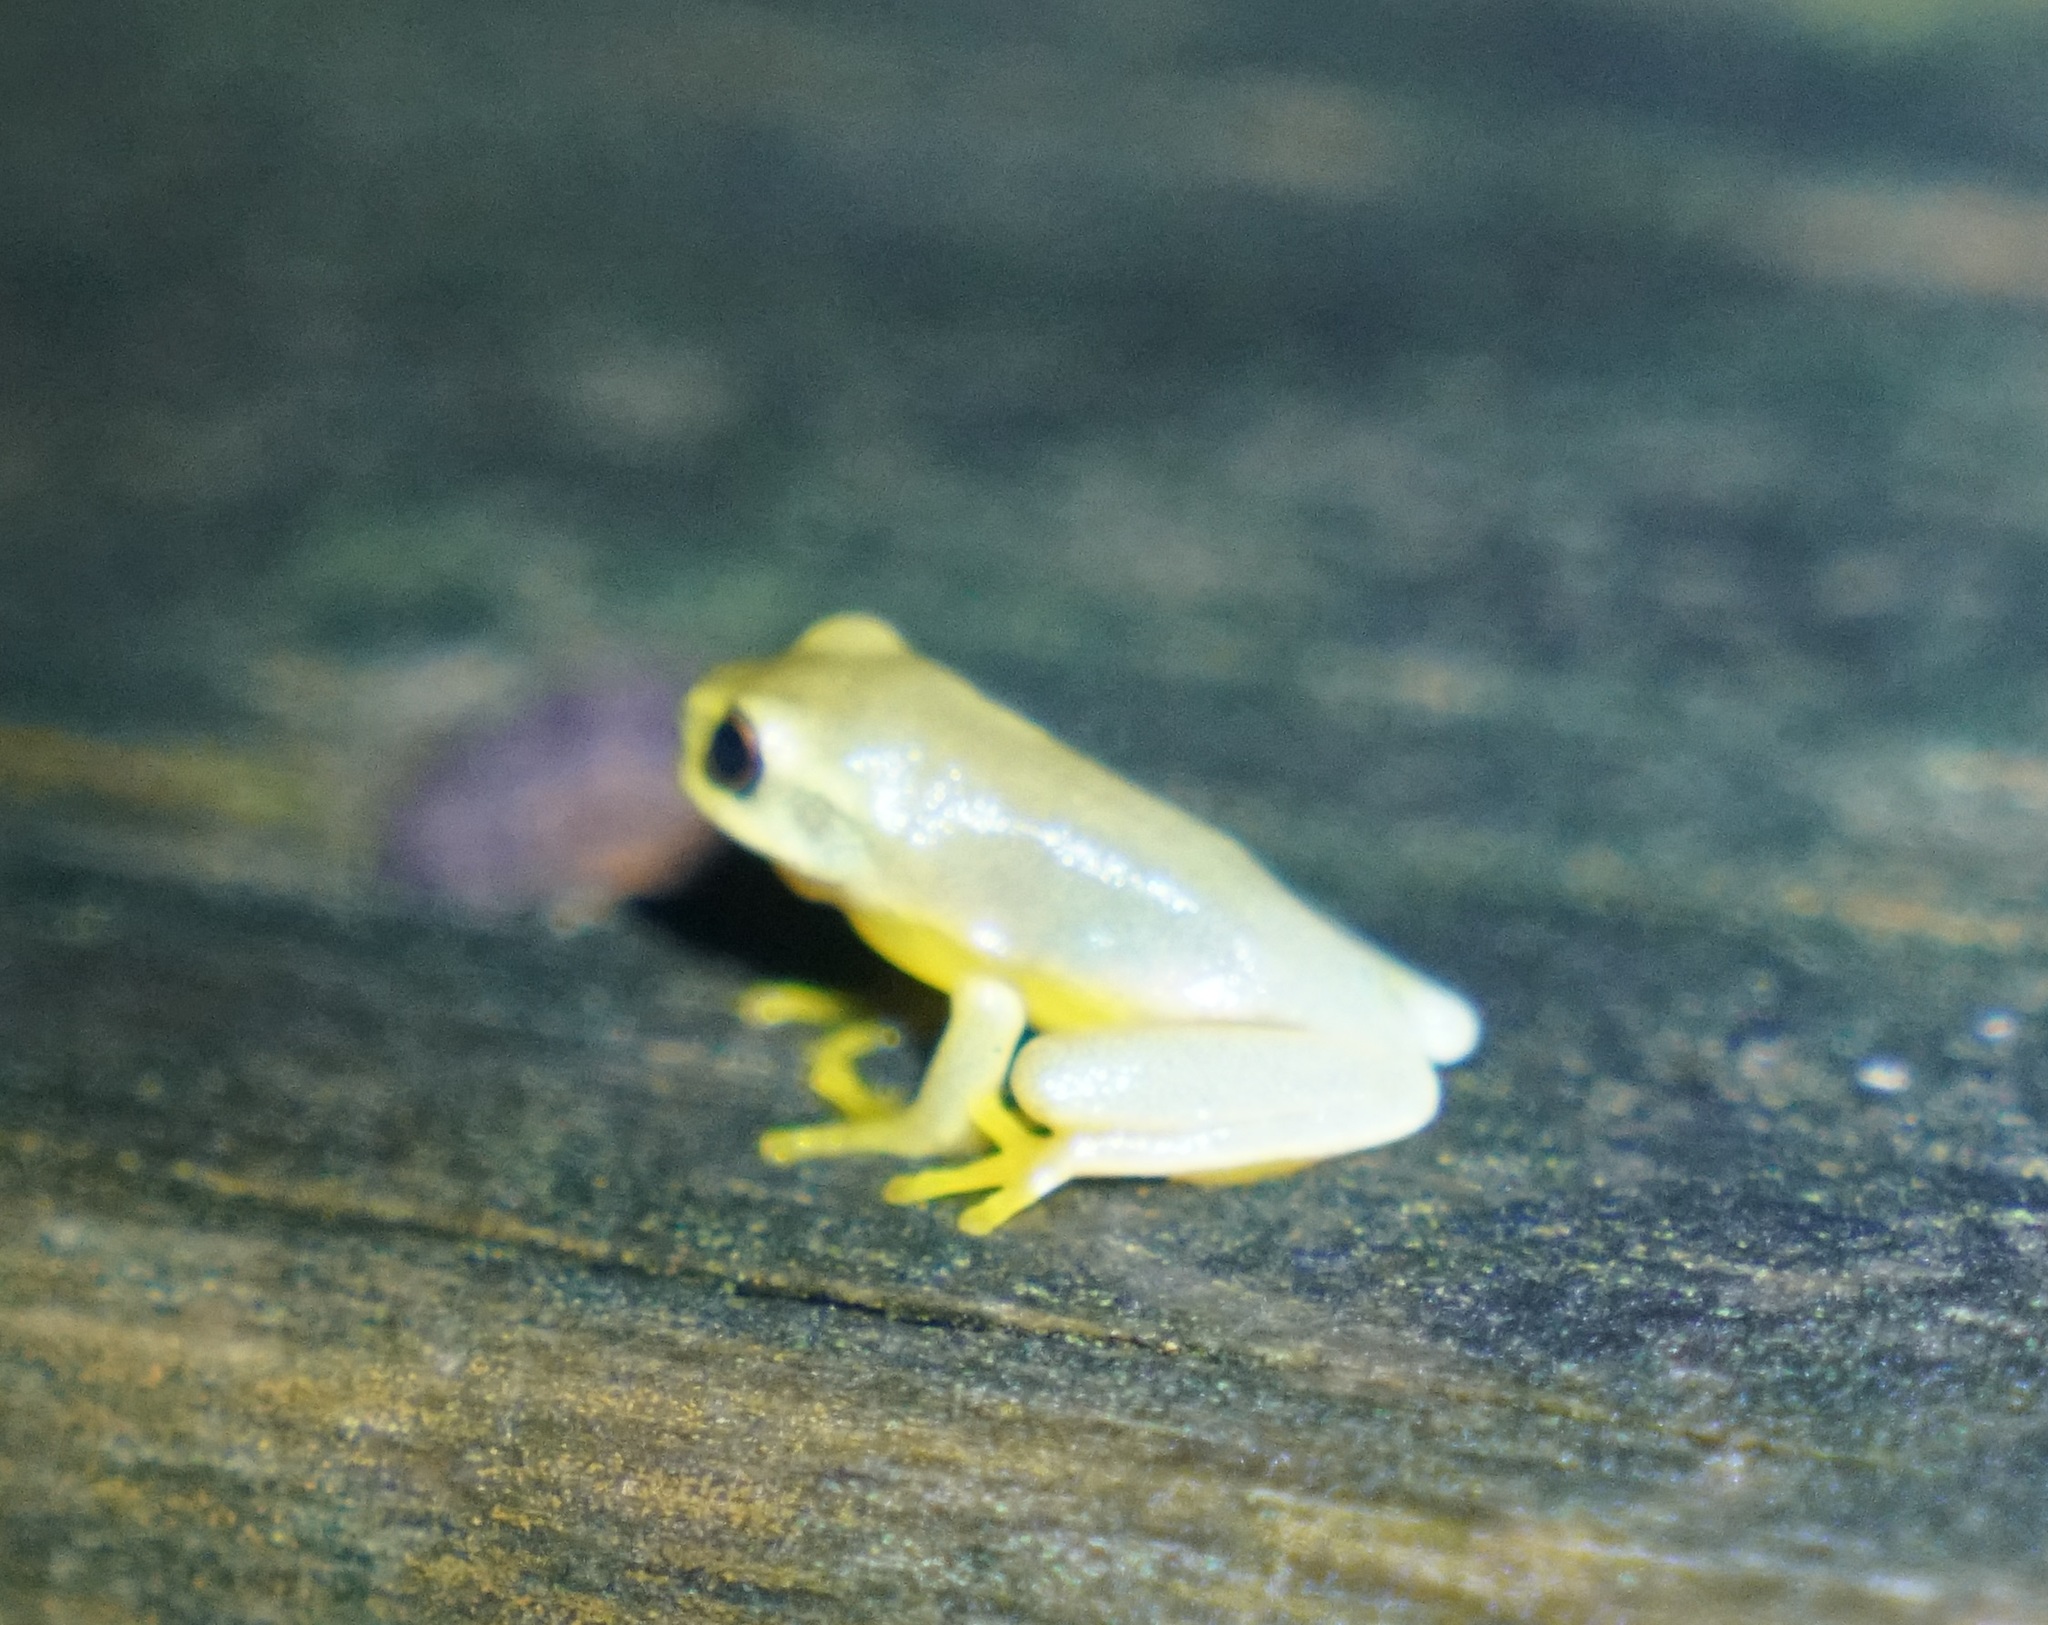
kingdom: Animalia
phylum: Chordata
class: Amphibia
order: Anura
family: Pelodryadidae
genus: Ranoidea
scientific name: Ranoidea gracilenta
